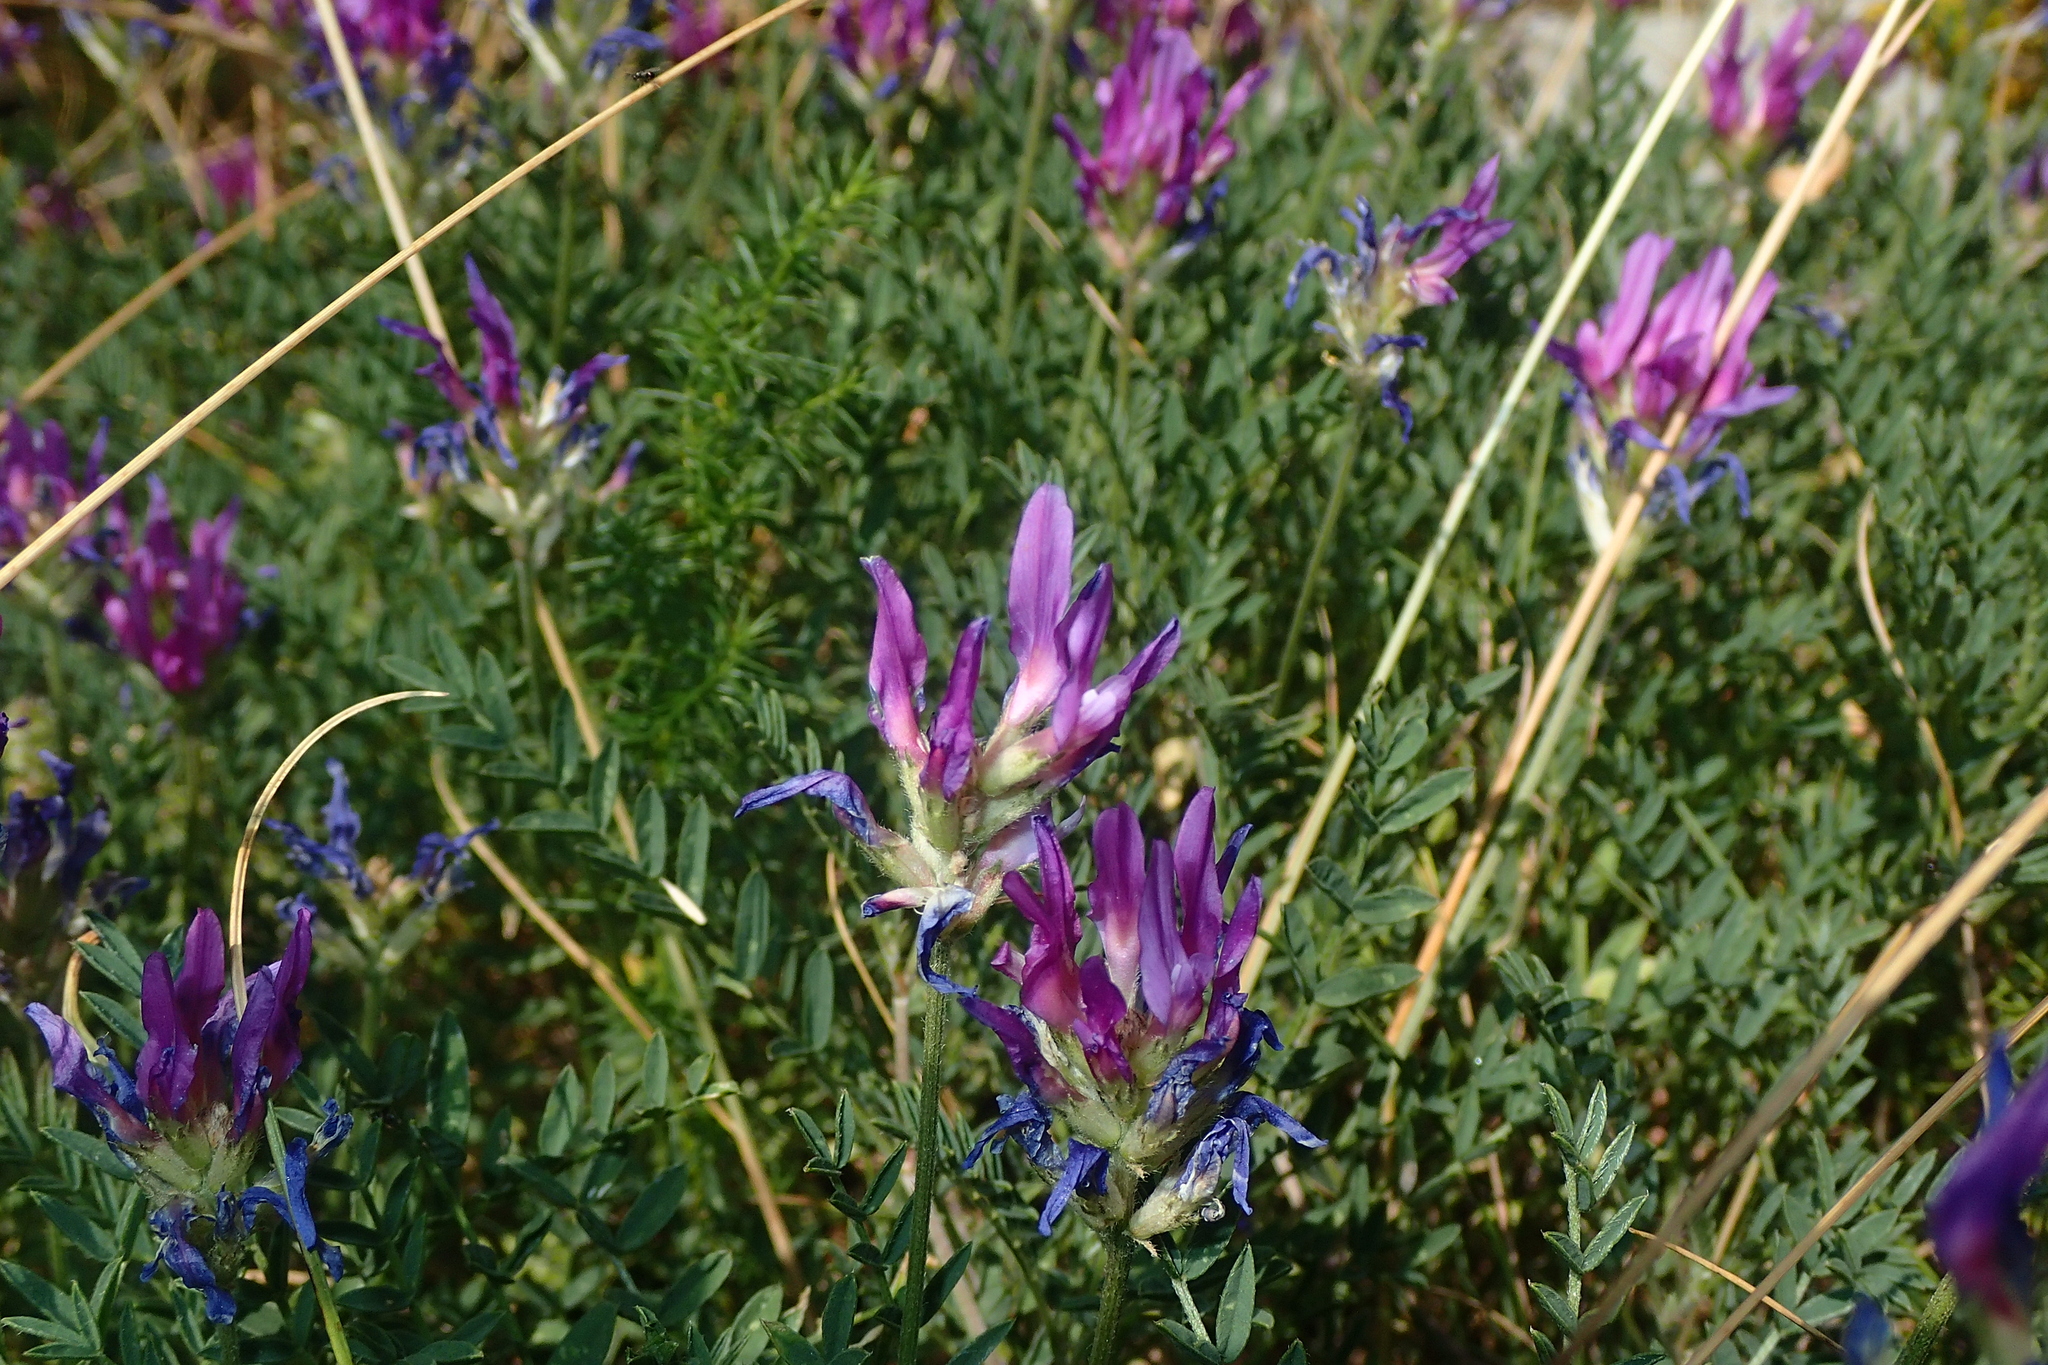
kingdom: Plantae
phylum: Tracheophyta
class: Magnoliopsida
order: Fabales
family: Fabaceae
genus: Astragalus
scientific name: Astragalus onobrychis
